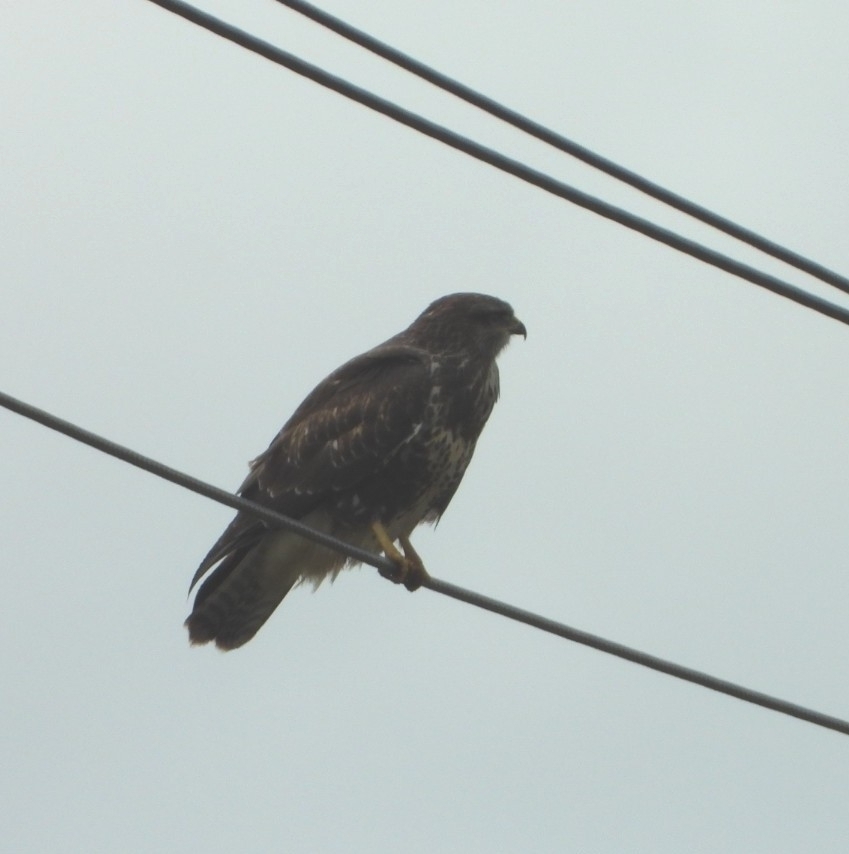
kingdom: Animalia
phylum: Chordata
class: Aves
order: Accipitriformes
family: Accipitridae
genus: Buteo
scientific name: Buteo buteo
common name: Common buzzard
